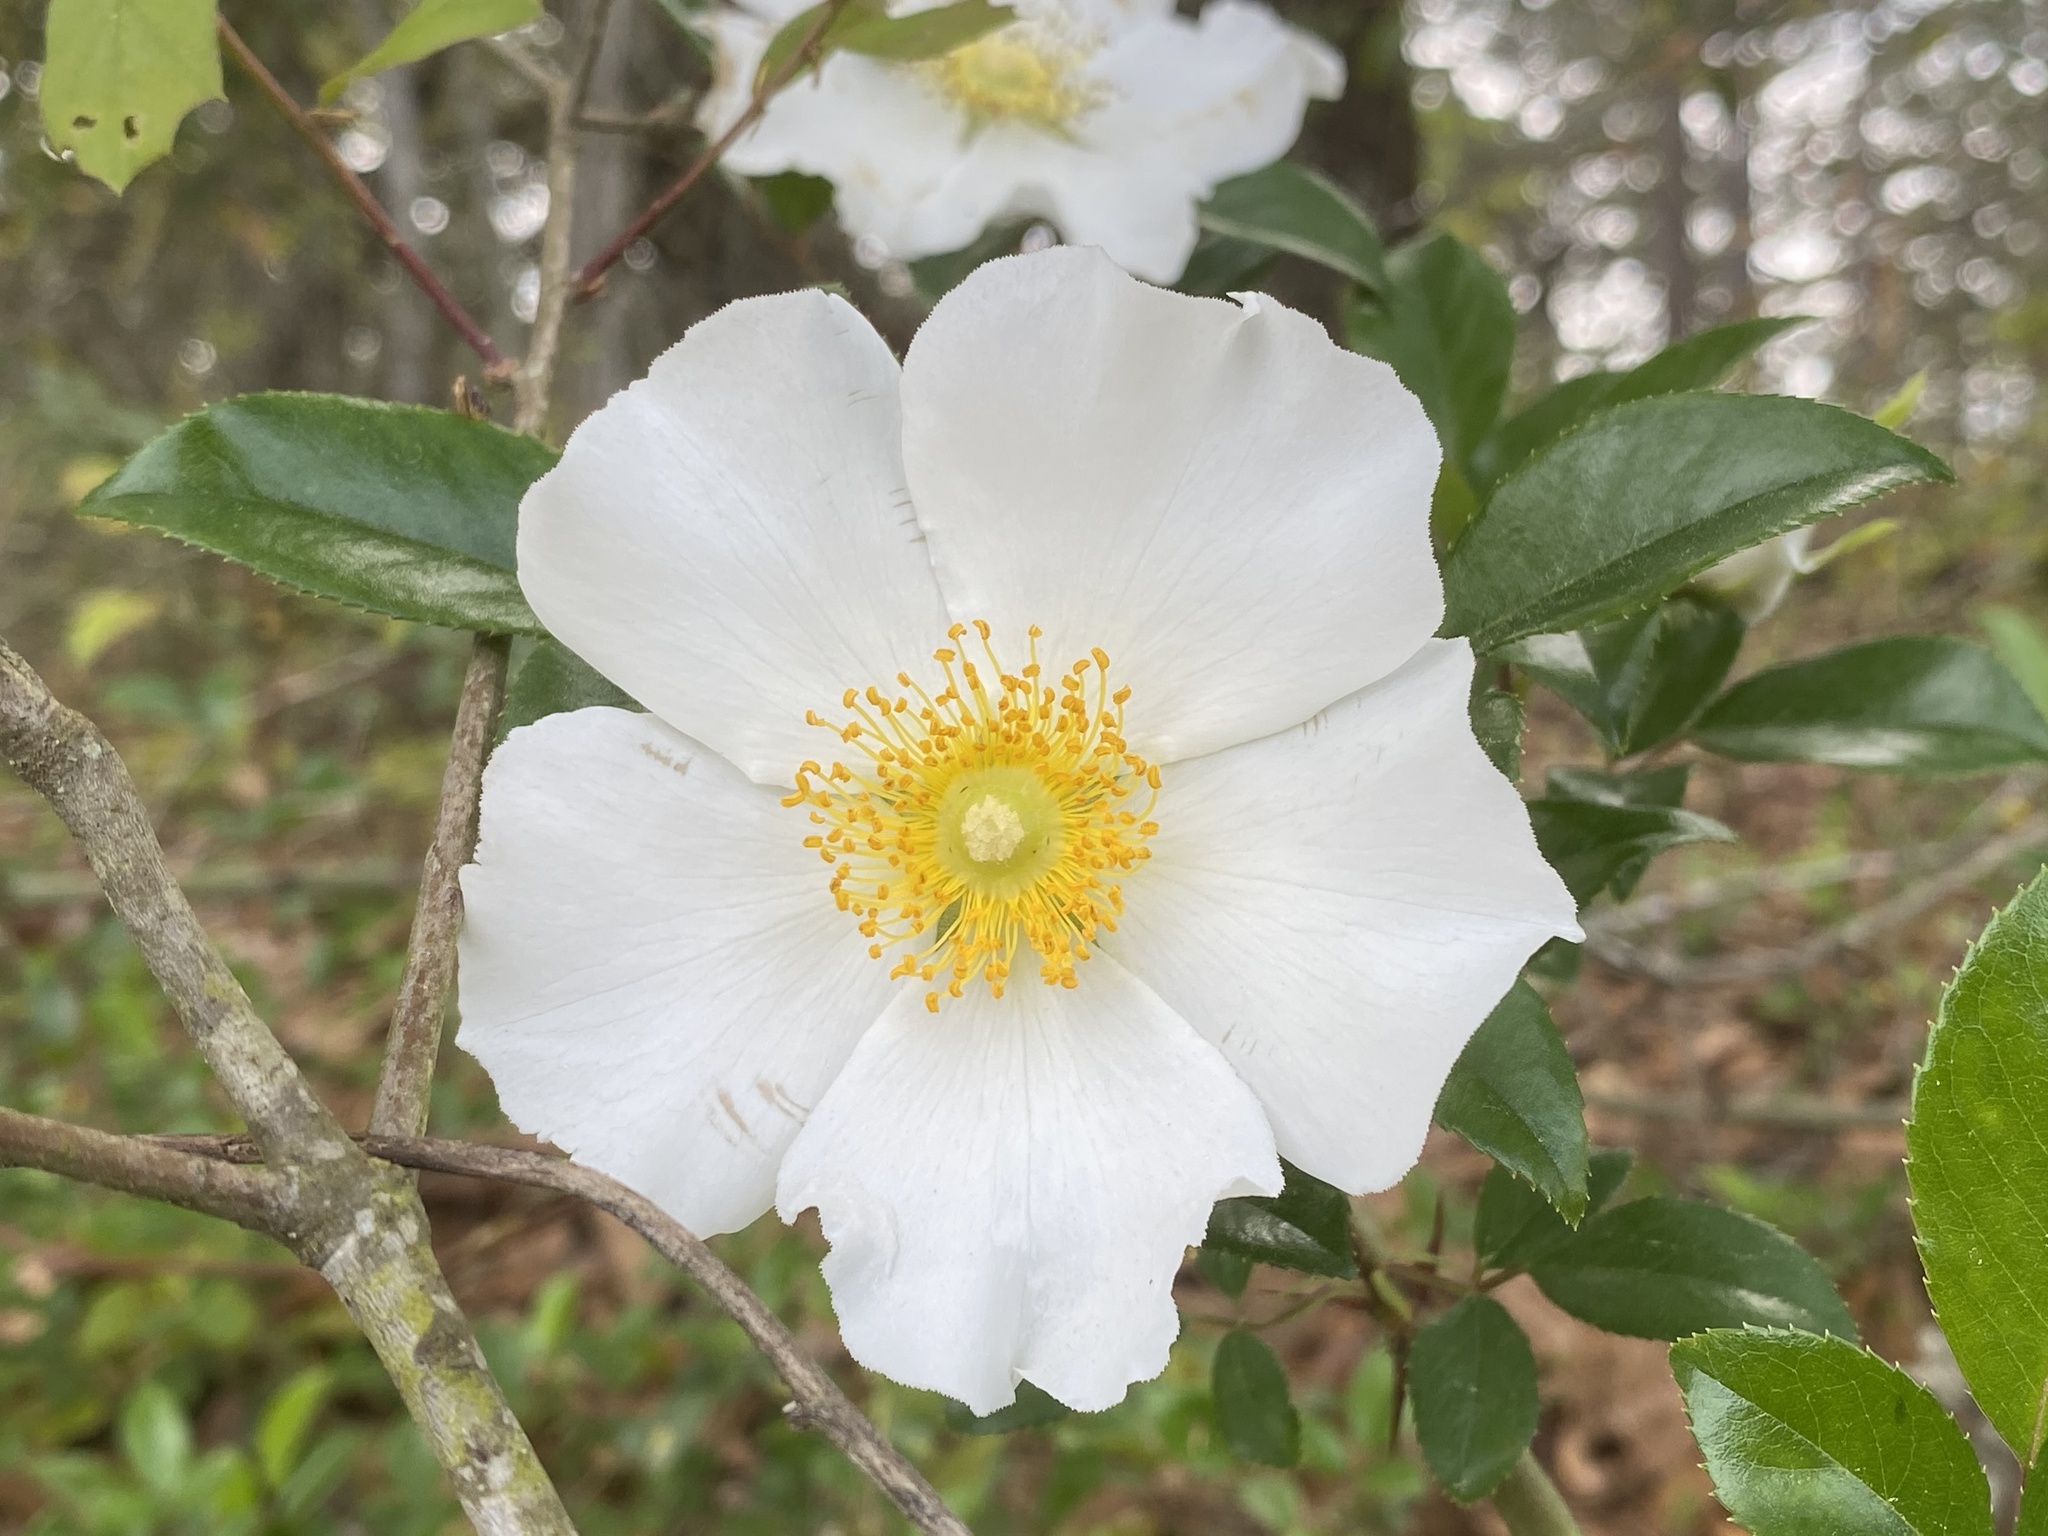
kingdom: Plantae
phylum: Tracheophyta
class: Magnoliopsida
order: Rosales
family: Rosaceae
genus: Rosa
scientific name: Rosa laevigata
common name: Cherokee rose
